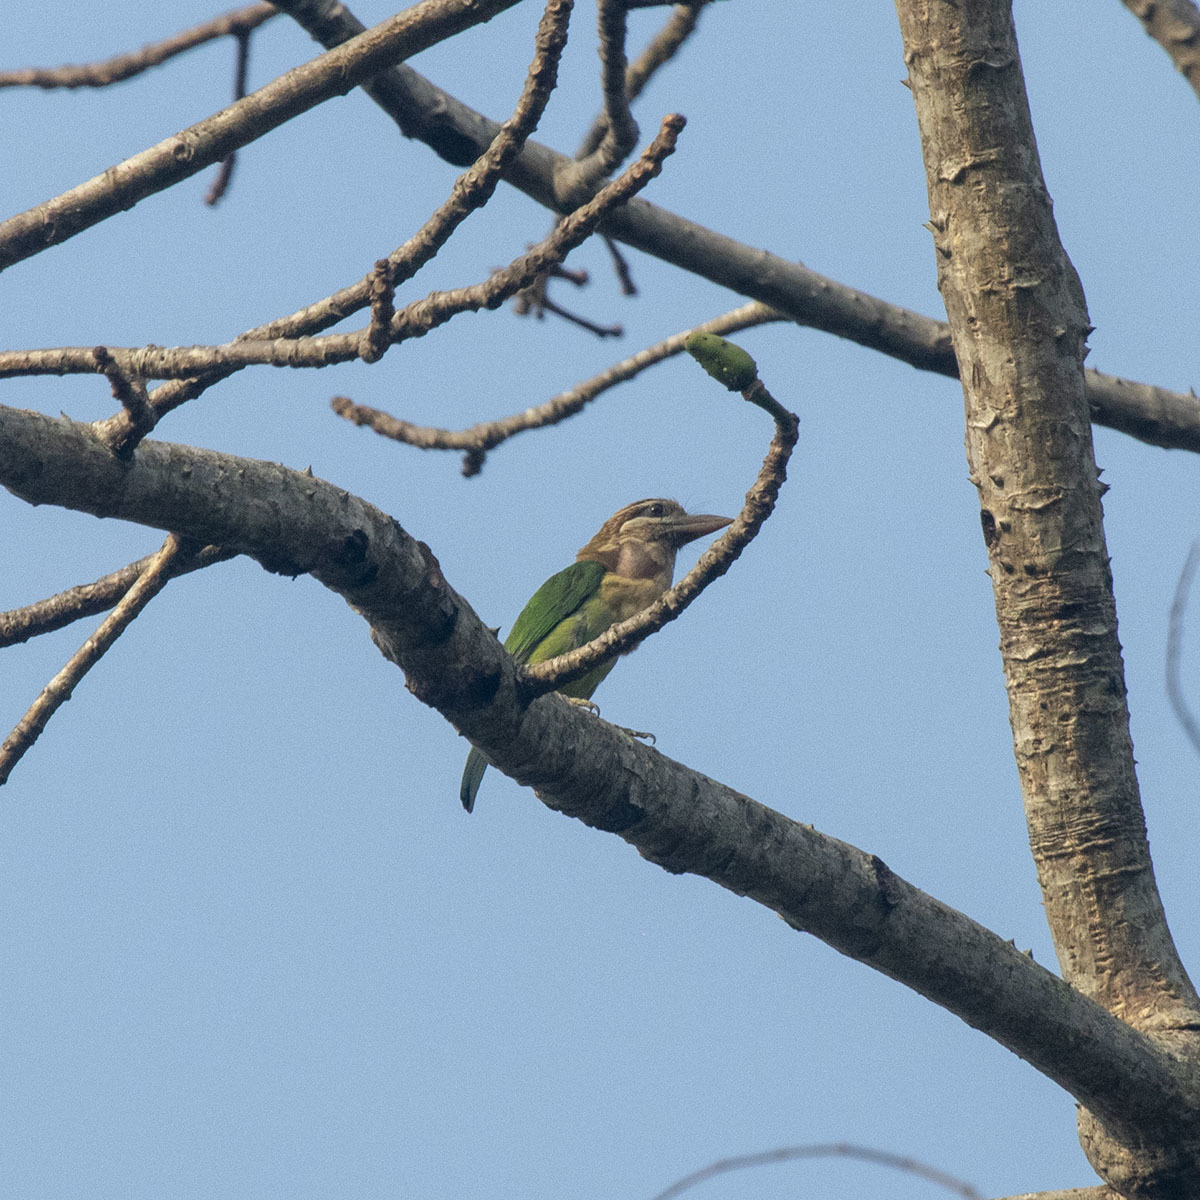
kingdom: Animalia
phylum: Chordata
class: Aves
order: Piciformes
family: Megalaimidae
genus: Psilopogon
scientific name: Psilopogon viridis
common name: White-cheeked barbet
